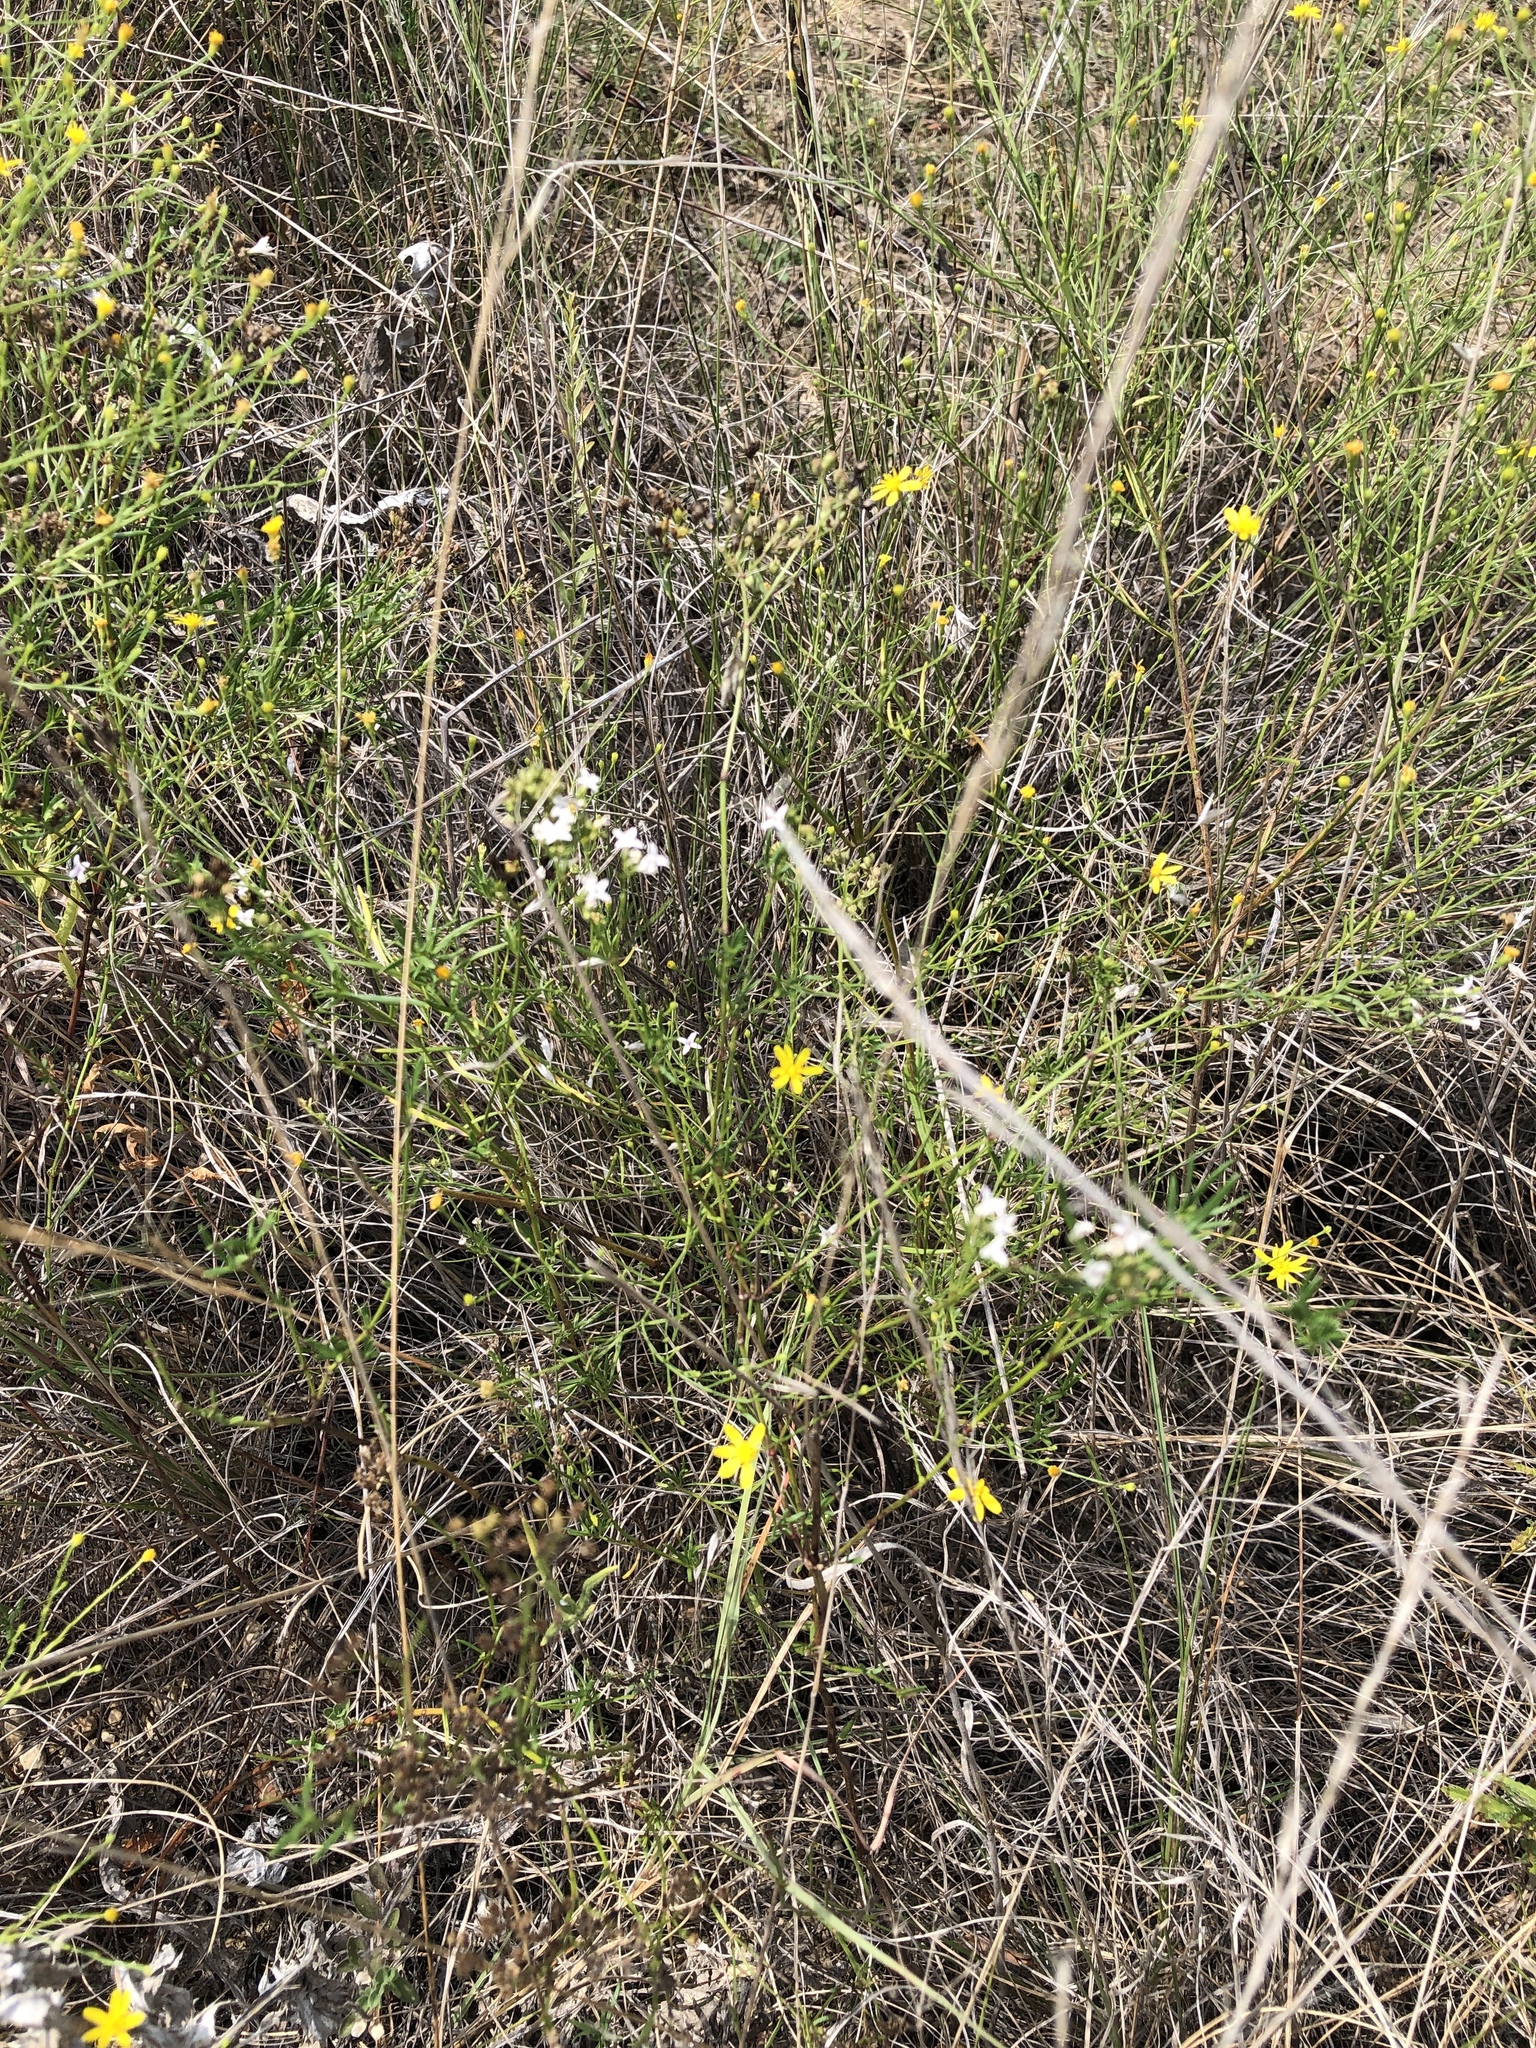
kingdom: Plantae
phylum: Tracheophyta
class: Magnoliopsida
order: Gentianales
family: Rubiaceae
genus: Stenaria
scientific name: Stenaria nigricans
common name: Diamondflowers
